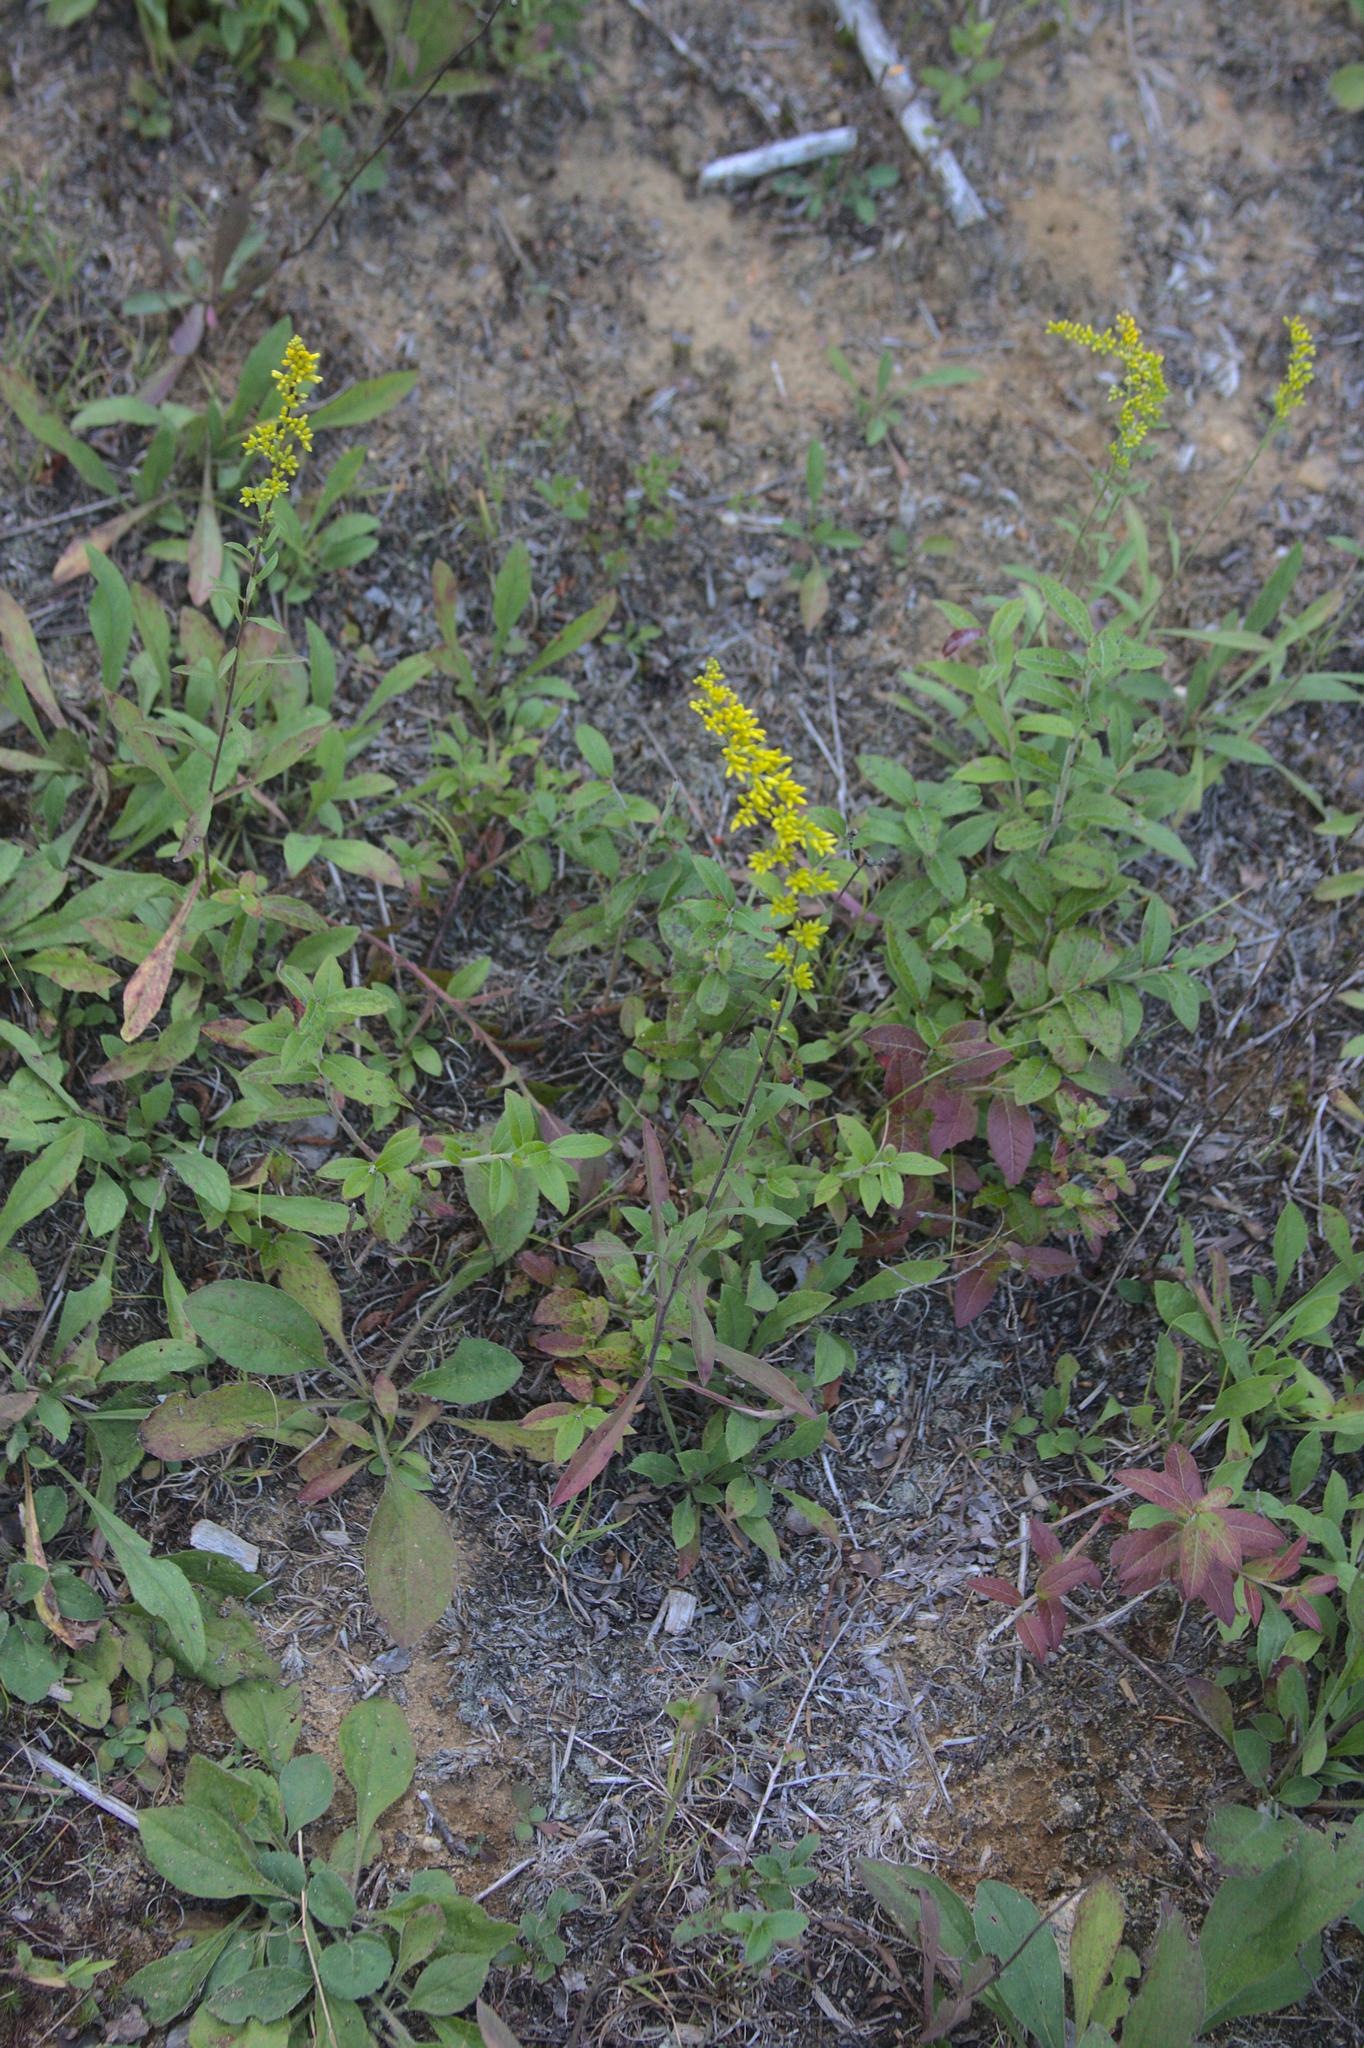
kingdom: Plantae
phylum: Tracheophyta
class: Magnoliopsida
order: Asterales
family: Asteraceae
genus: Solidago
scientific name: Solidago nemoralis
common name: Grey goldenrod
